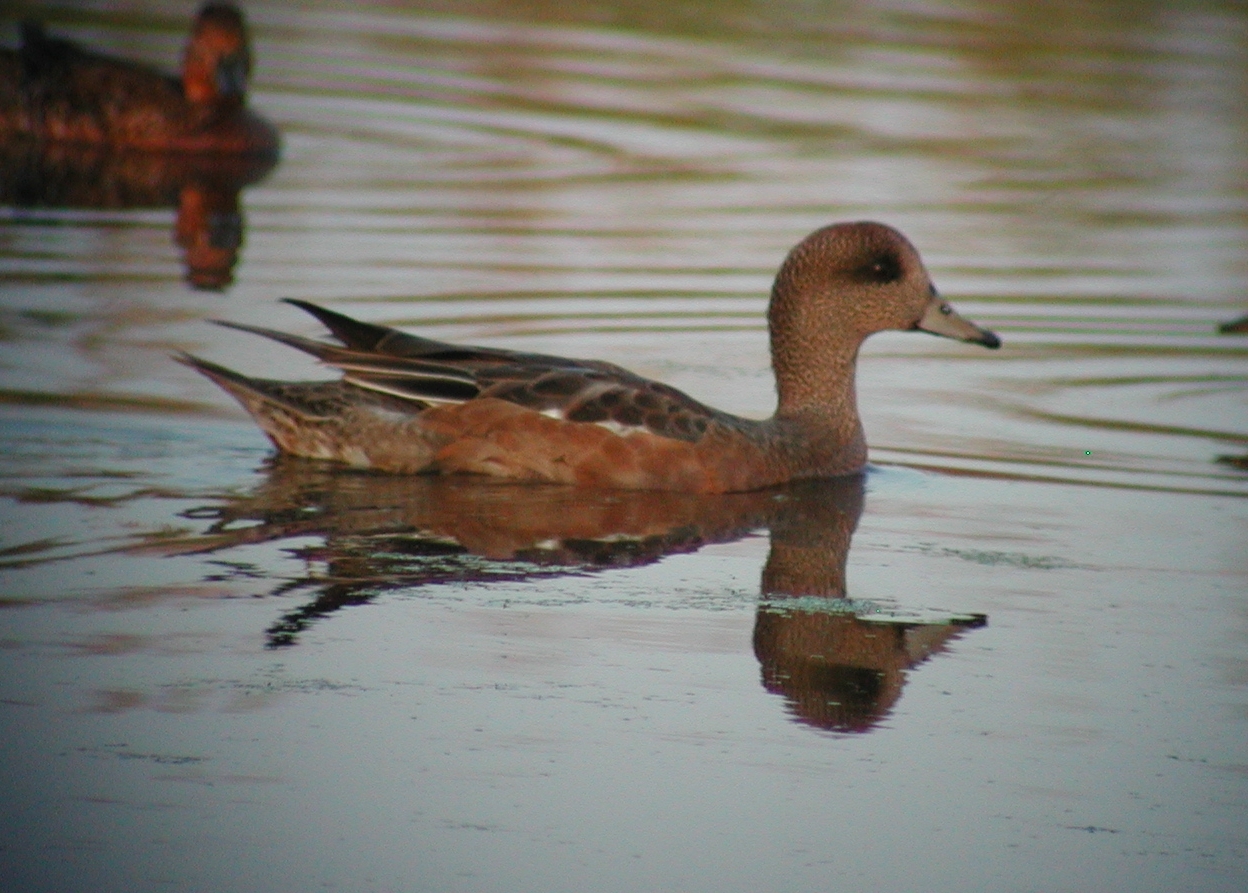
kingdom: Animalia
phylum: Chordata
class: Aves
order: Anseriformes
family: Anatidae
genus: Mareca
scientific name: Mareca americana
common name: American wigeon
